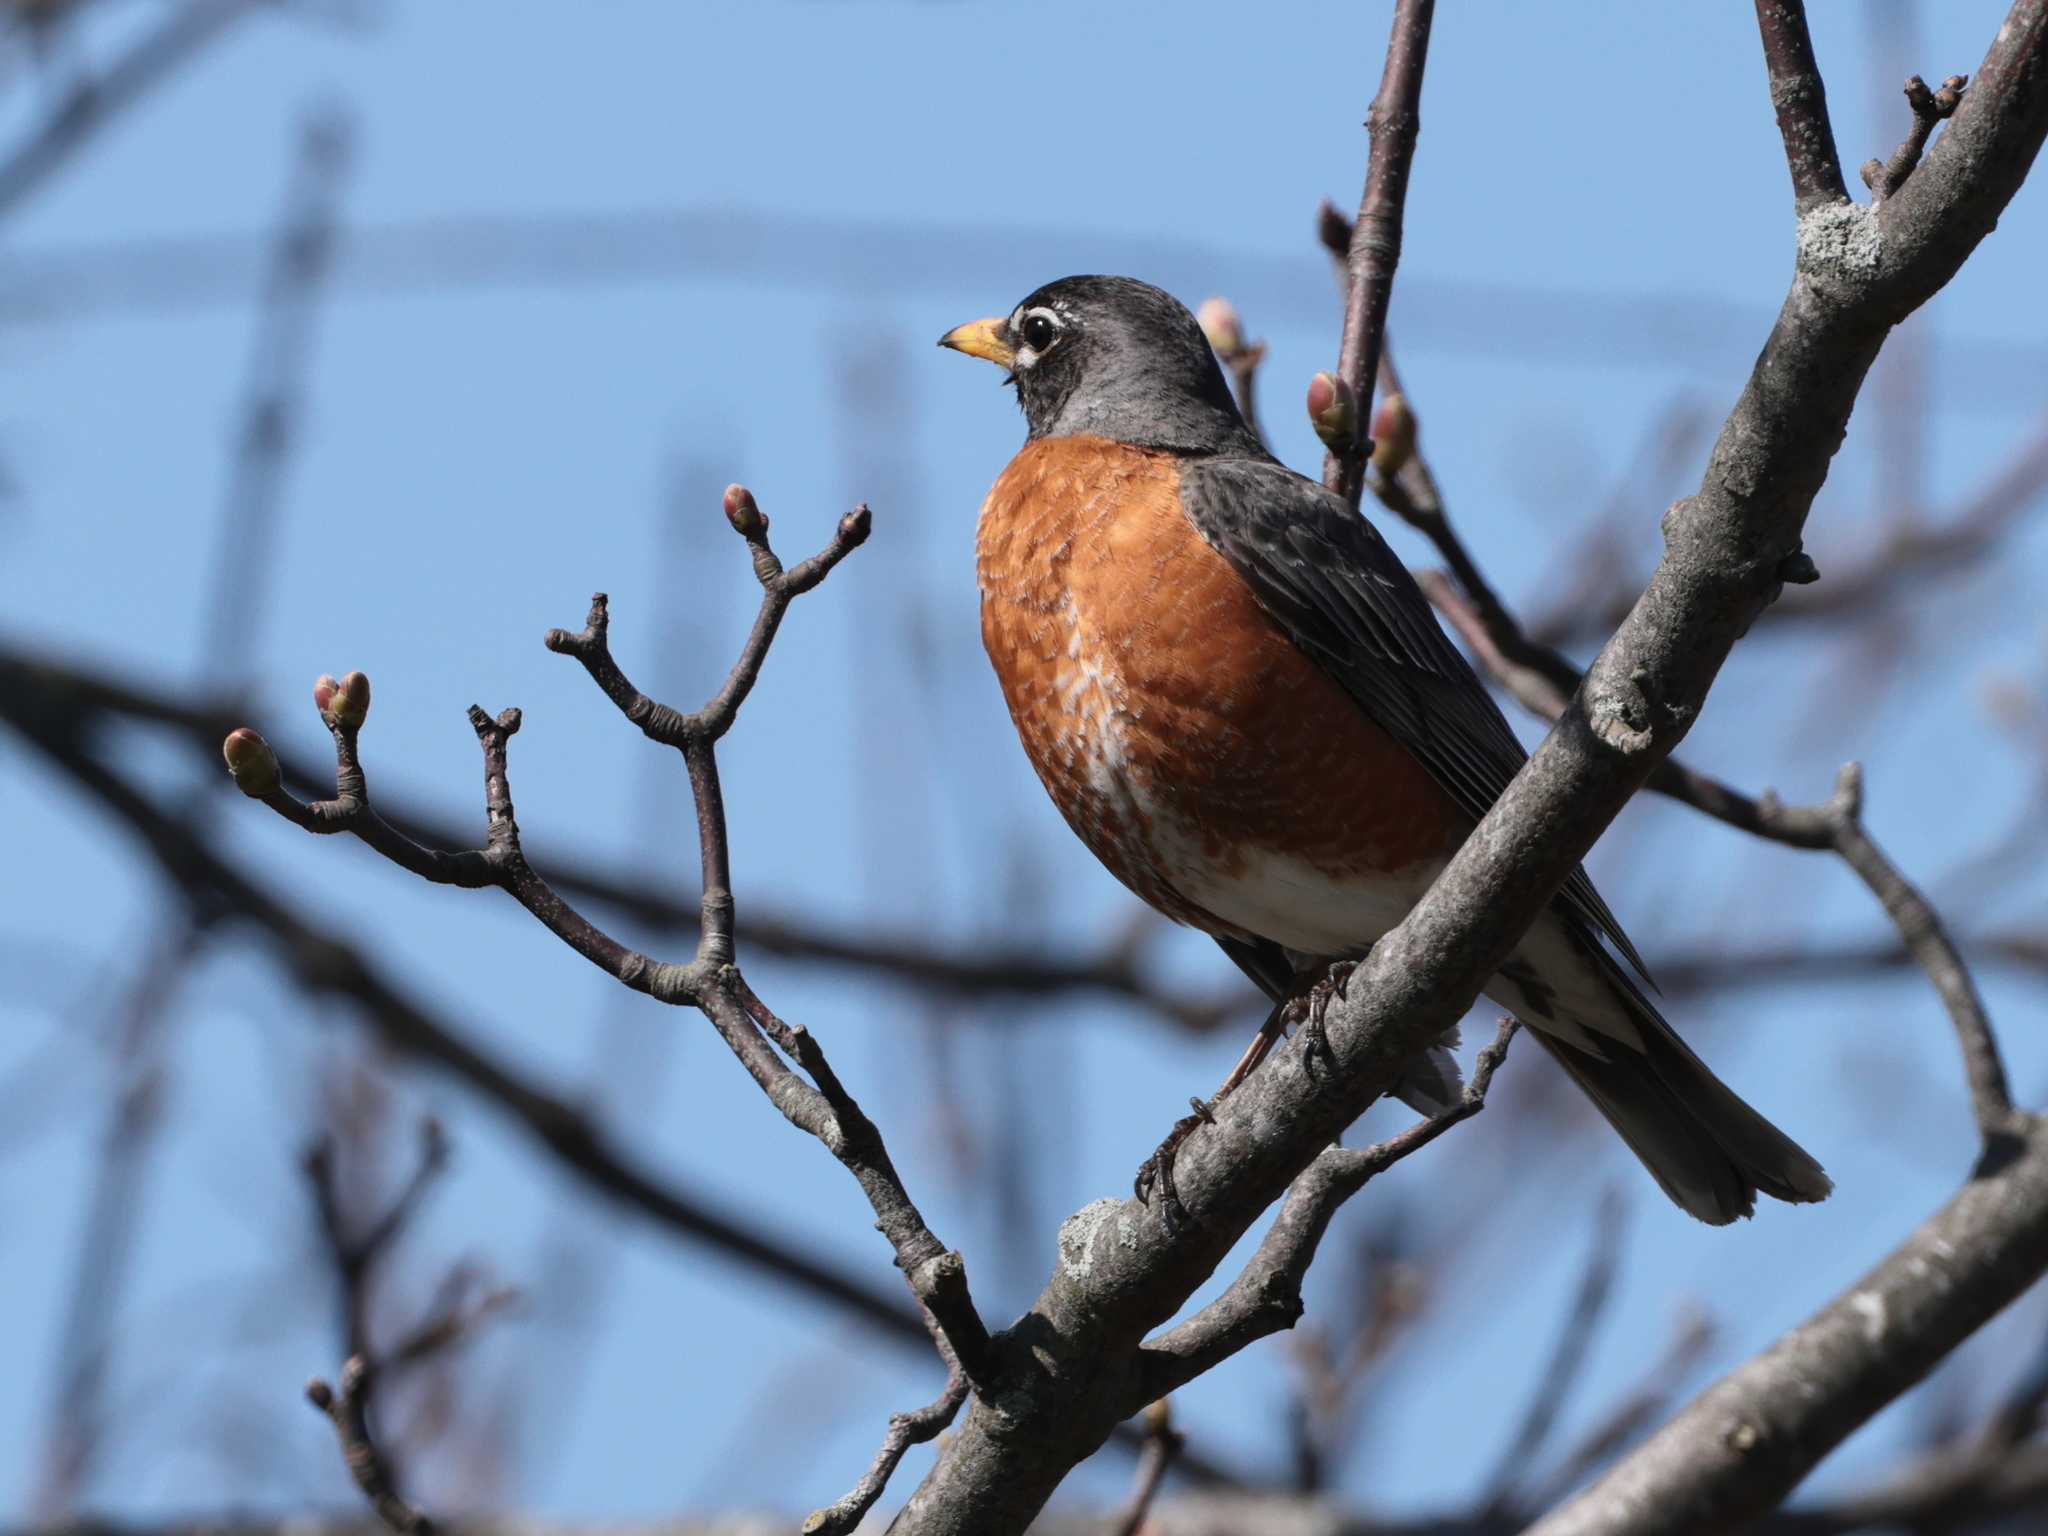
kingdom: Animalia
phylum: Chordata
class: Aves
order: Passeriformes
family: Turdidae
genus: Turdus
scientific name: Turdus migratorius
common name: American robin
